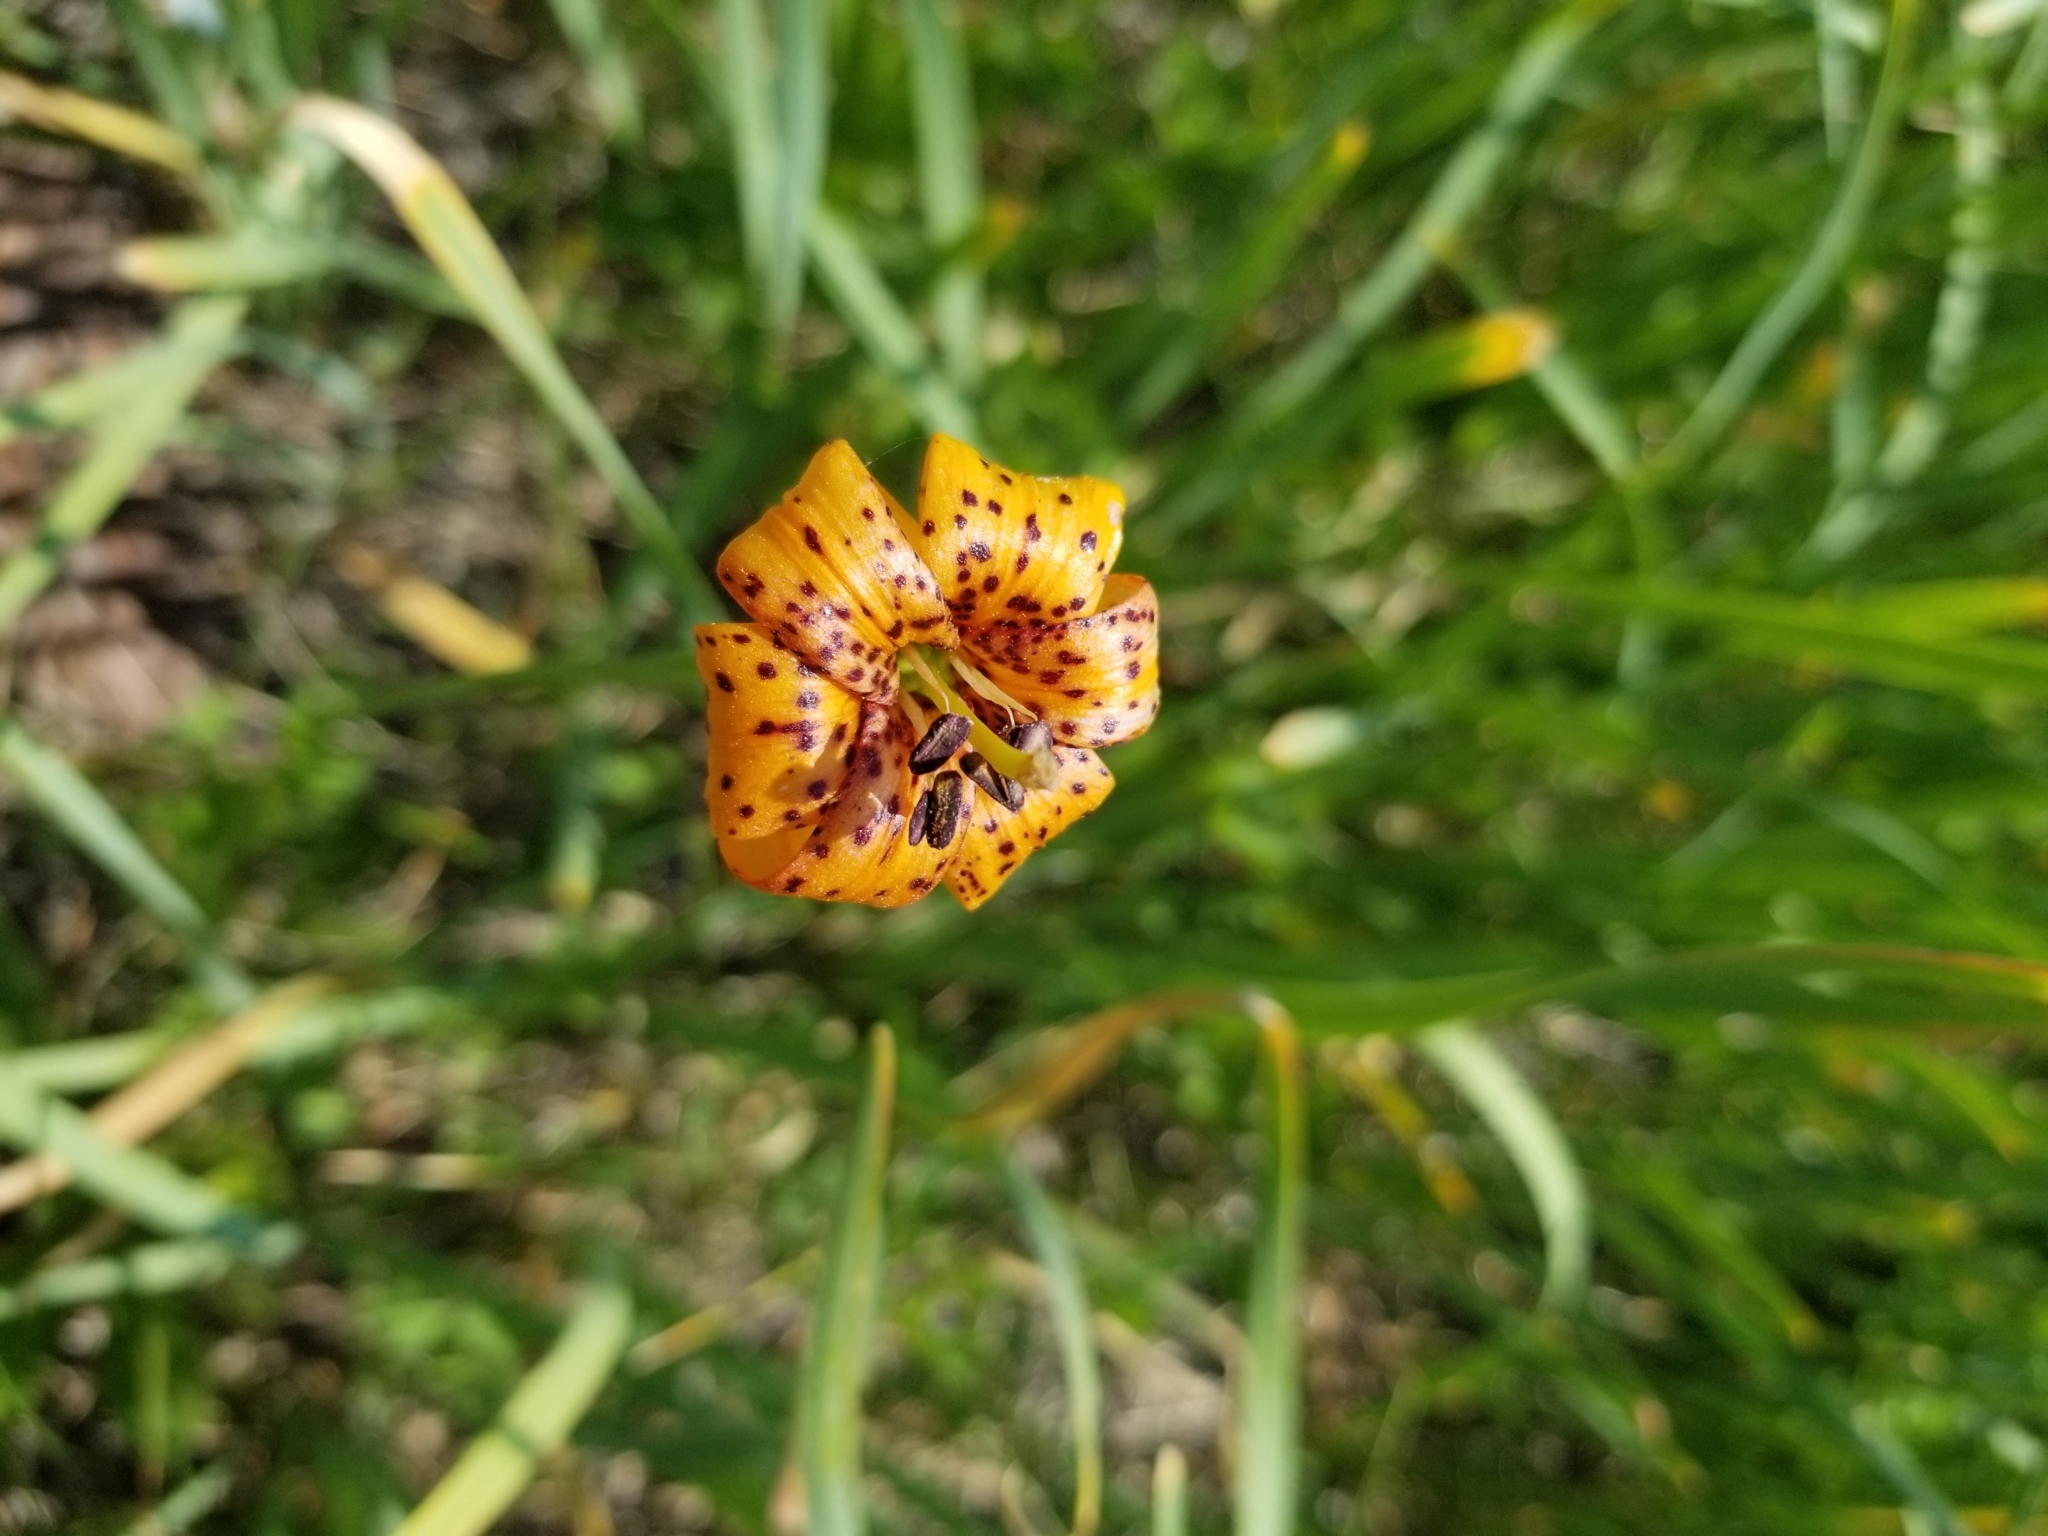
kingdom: Plantae
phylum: Tracheophyta
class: Liliopsida
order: Liliales
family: Liliaceae
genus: Lilium
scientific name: Lilium kelleyanum
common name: Kelley's lily
